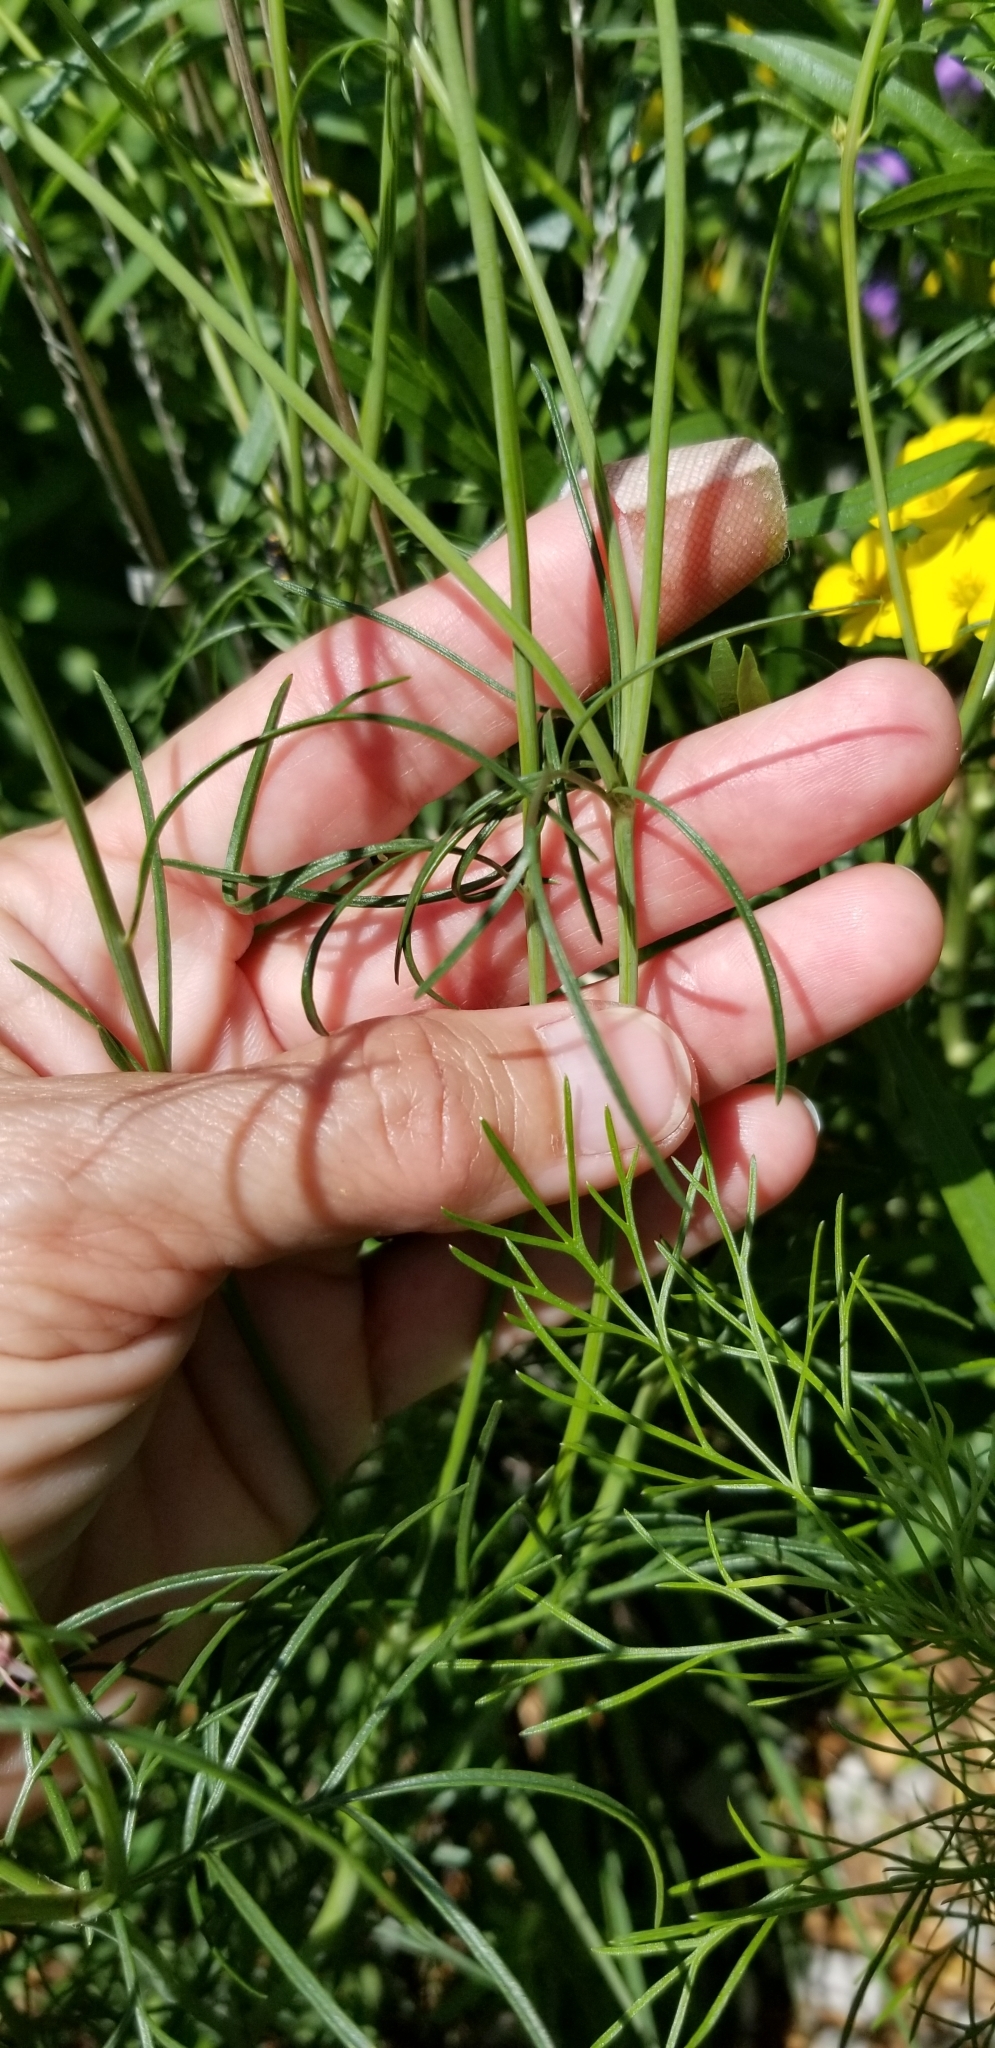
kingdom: Plantae
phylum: Tracheophyta
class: Magnoliopsida
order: Asterales
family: Asteraceae
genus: Thelesperma
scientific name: Thelesperma filifolium
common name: Stiff greenthread
